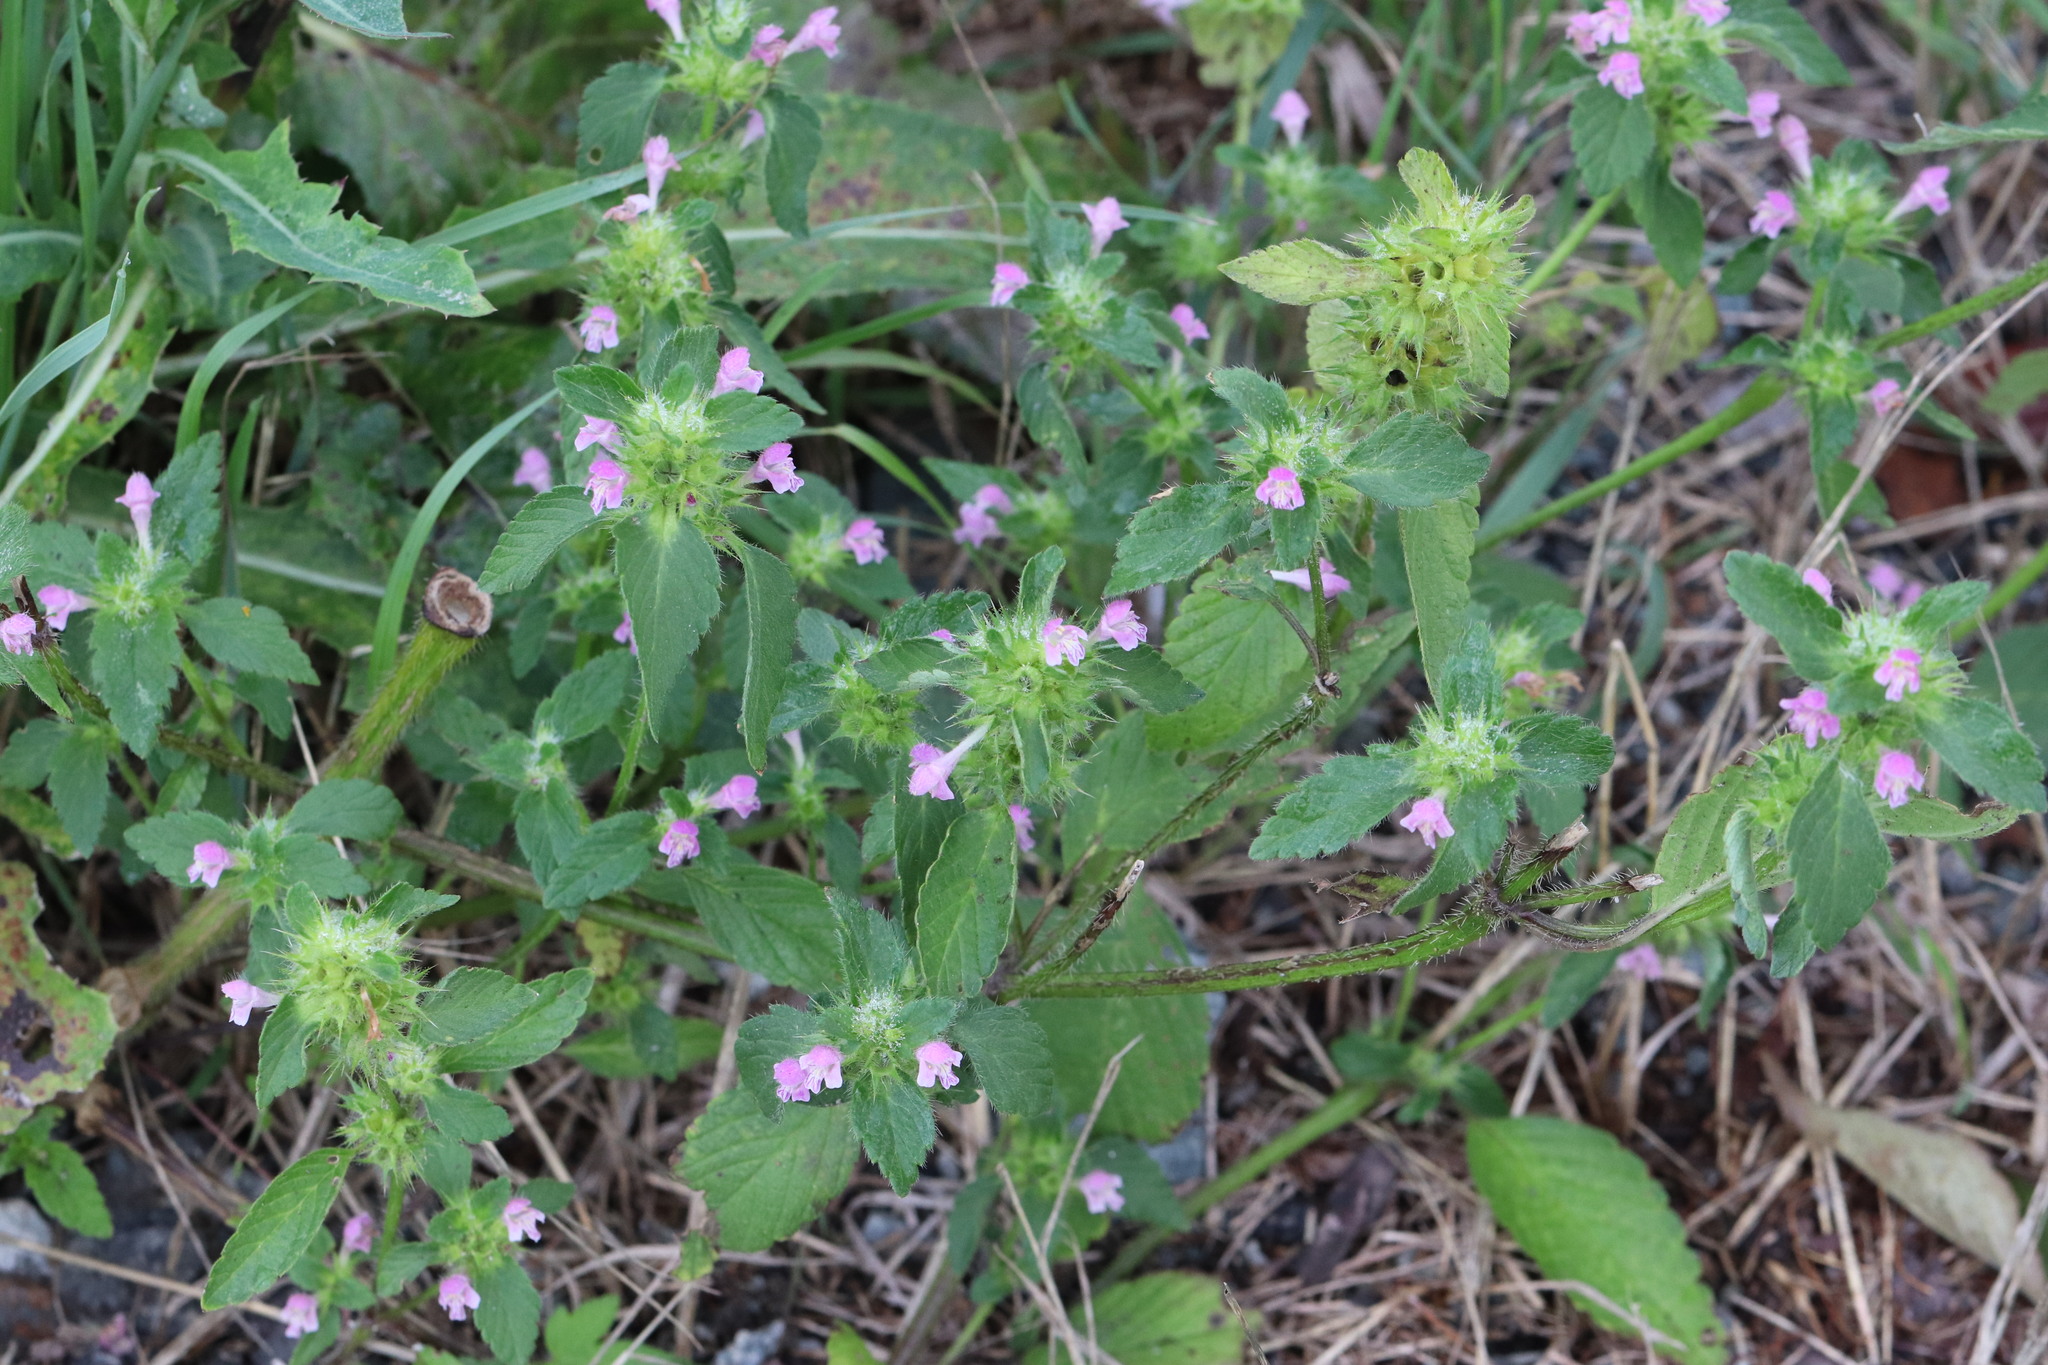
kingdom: Plantae
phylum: Tracheophyta
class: Magnoliopsida
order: Lamiales
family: Lamiaceae
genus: Galeopsis
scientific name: Galeopsis bifida
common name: Bifid hemp-nettle
